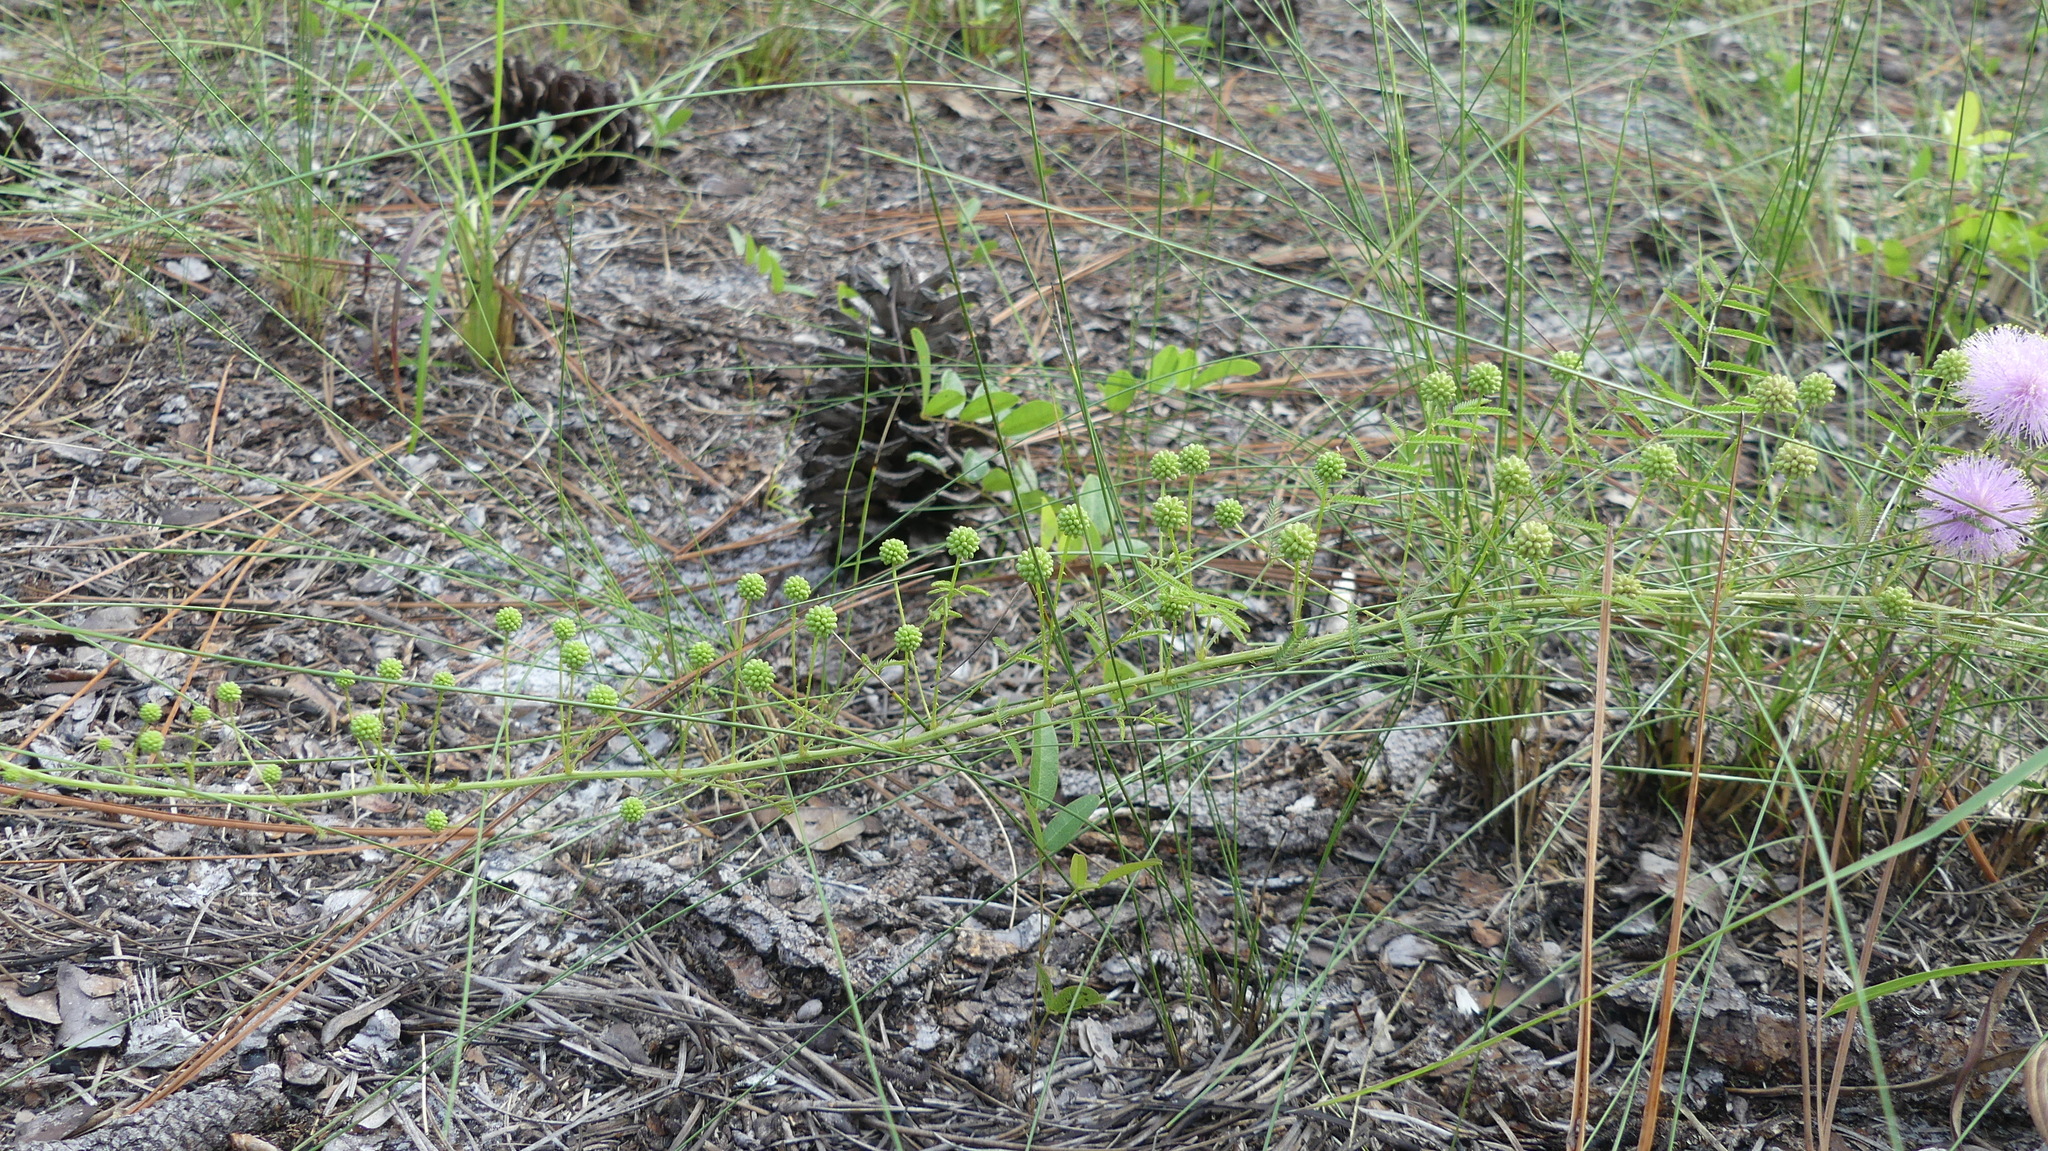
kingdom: Plantae
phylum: Tracheophyta
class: Magnoliopsida
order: Fabales
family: Fabaceae
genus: Mimosa
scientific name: Mimosa quadrivalvis
